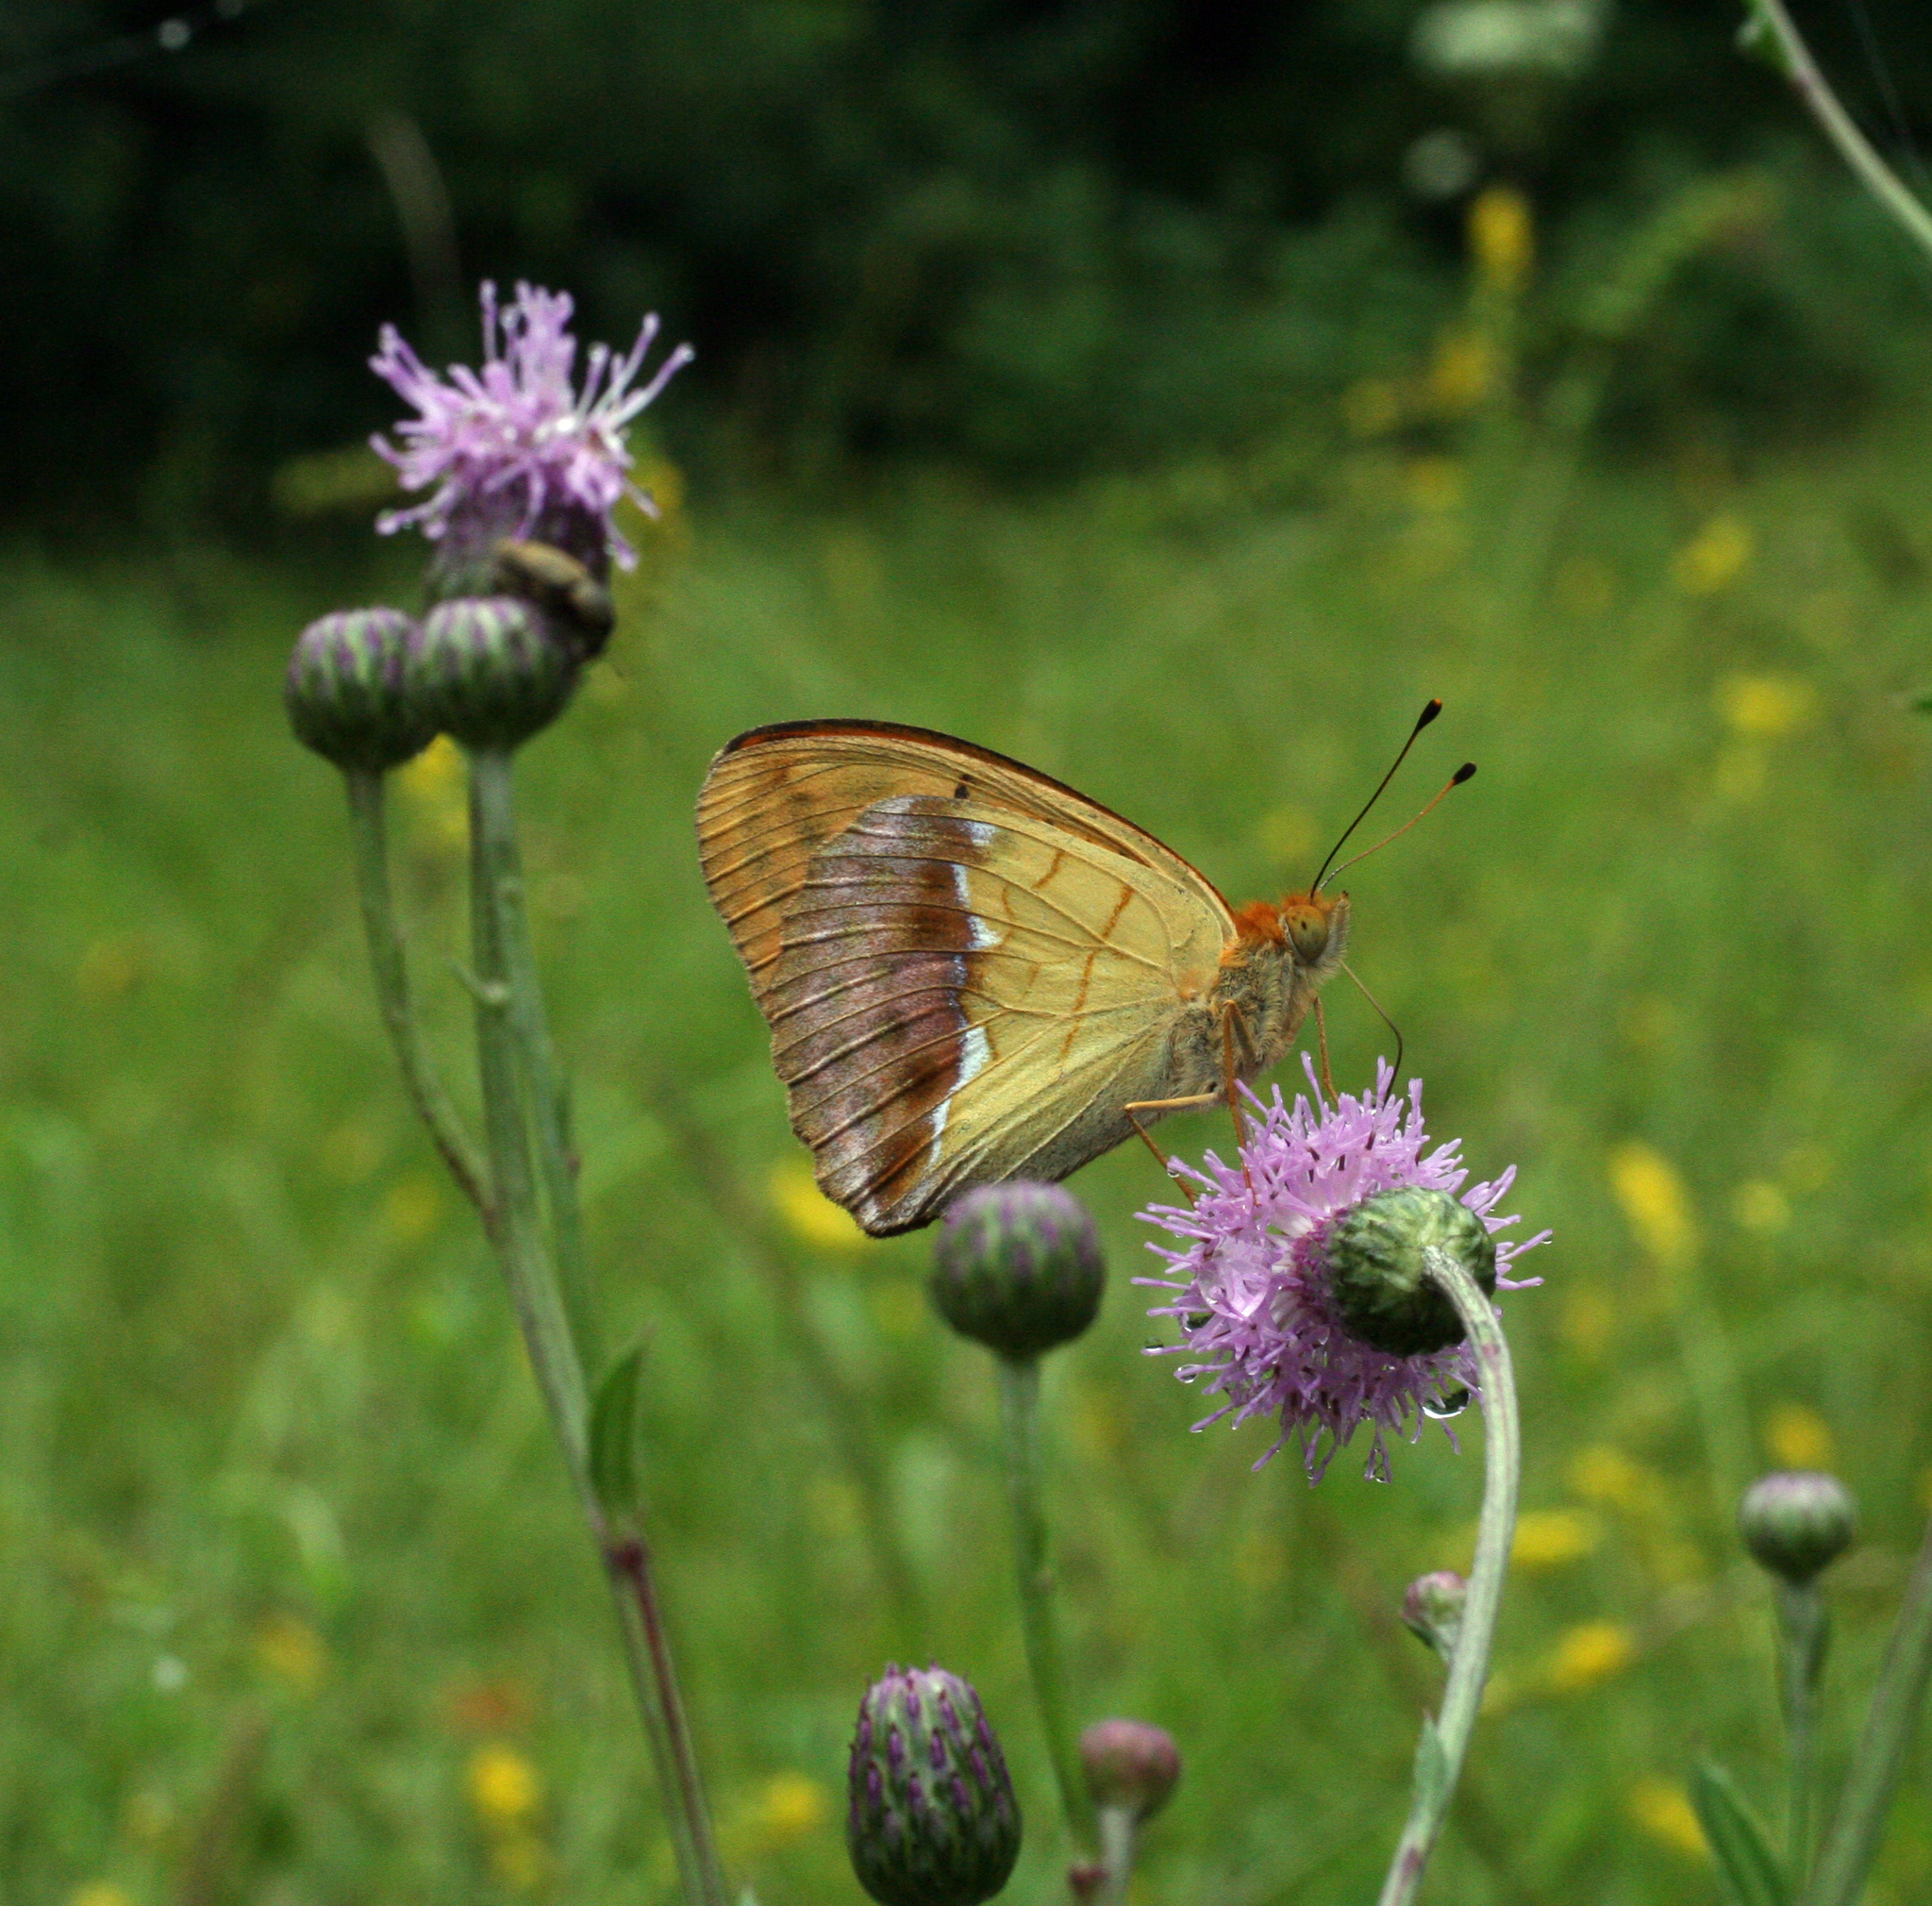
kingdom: Animalia
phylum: Arthropoda
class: Insecta
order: Lepidoptera
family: Nymphalidae
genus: Argyronome
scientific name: Argyronome laodice
